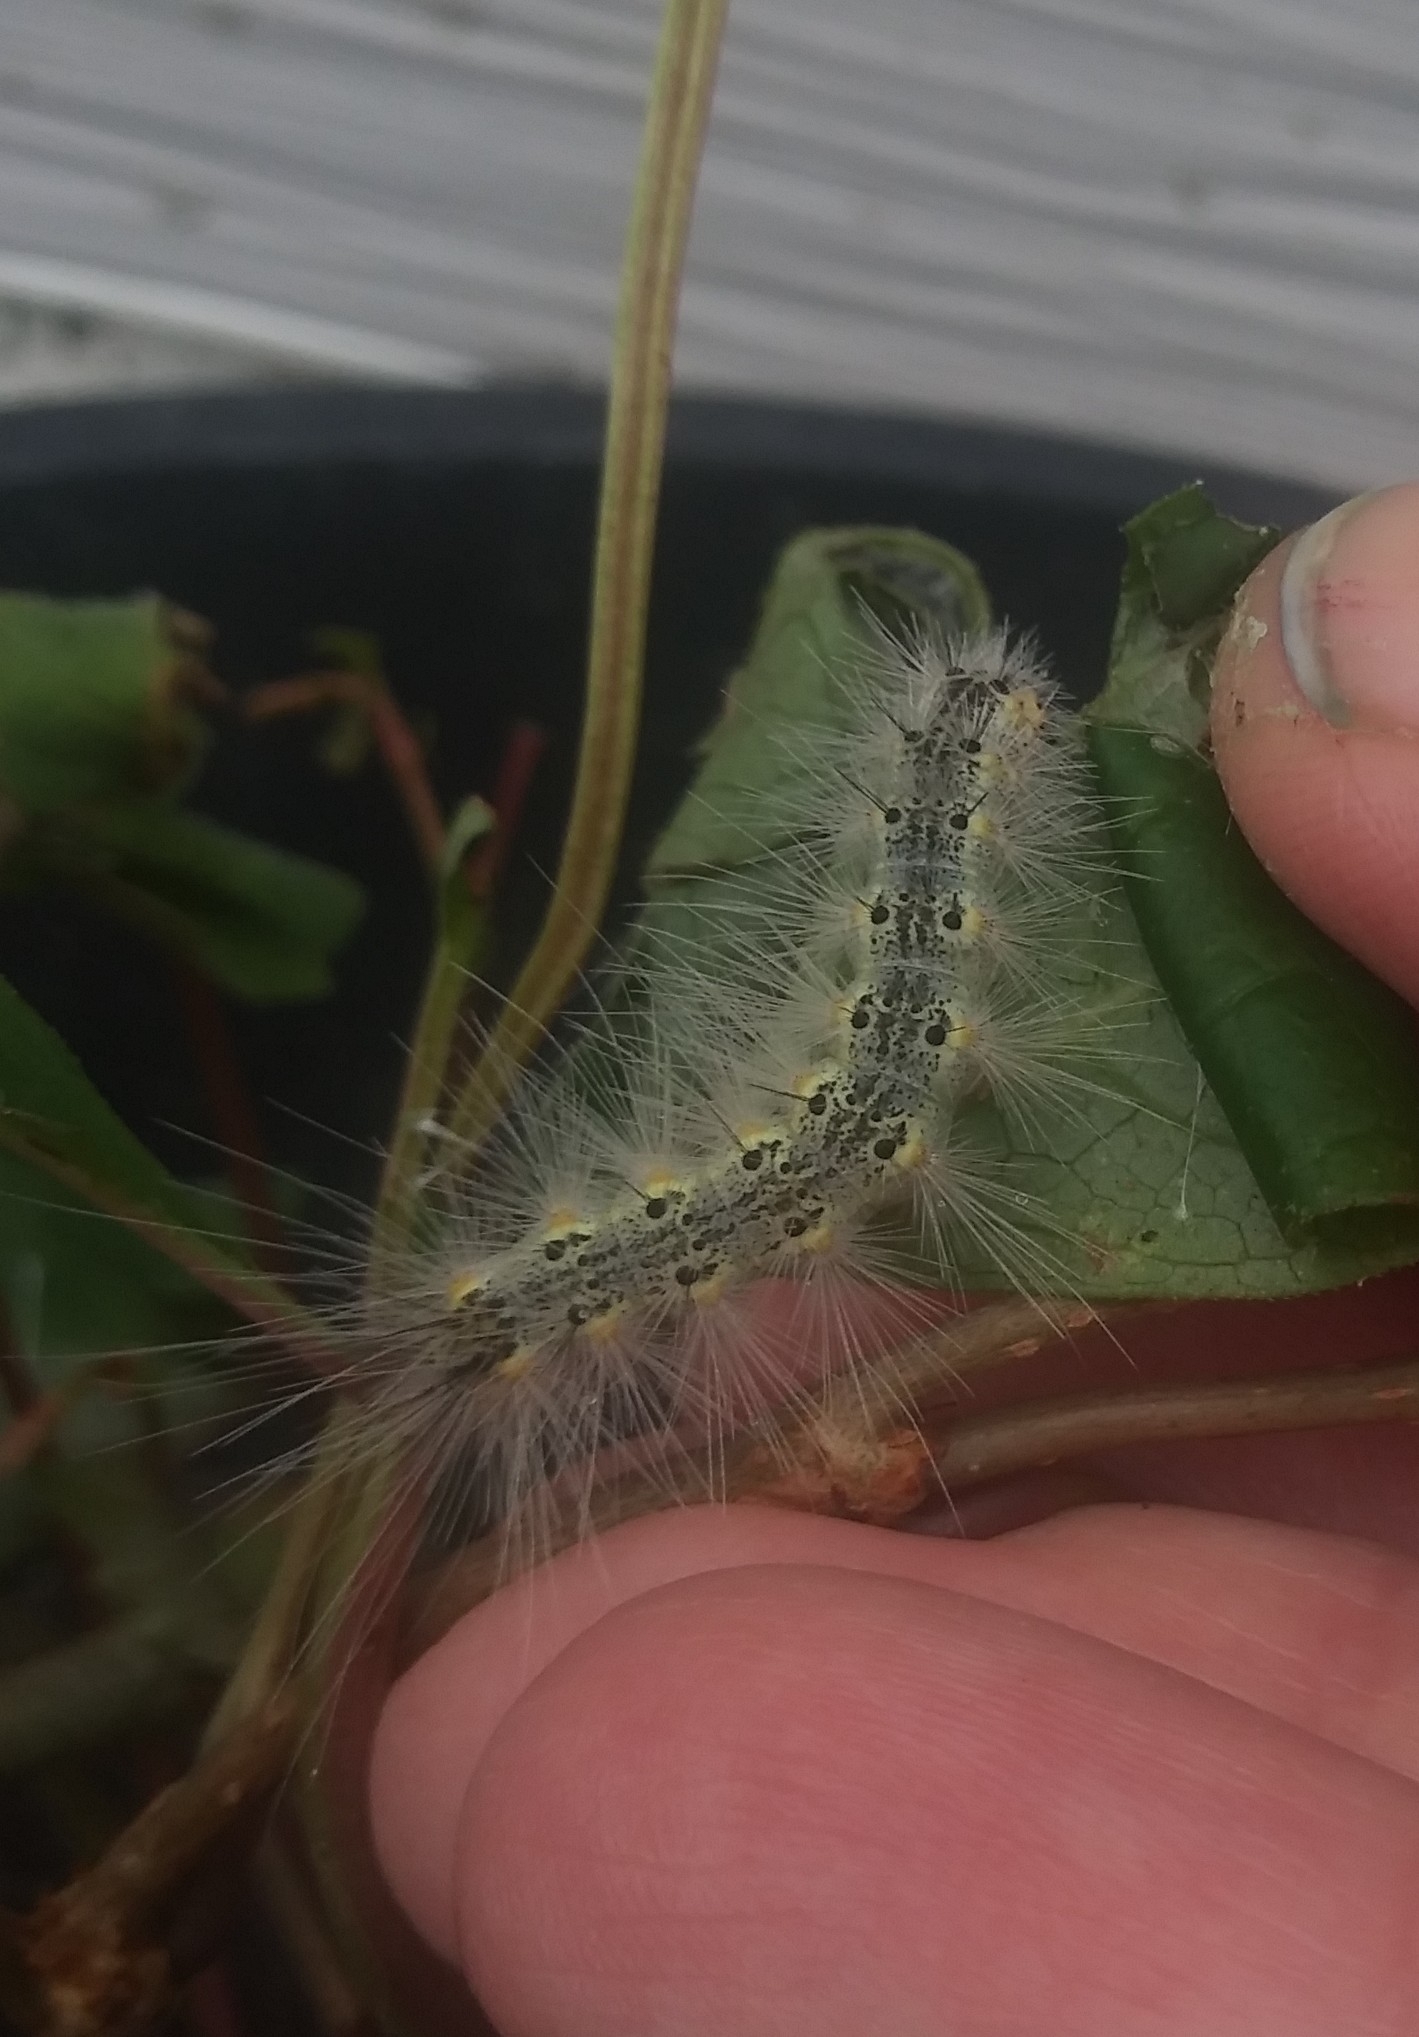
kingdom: Animalia
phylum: Arthropoda
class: Insecta
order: Lepidoptera
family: Erebidae
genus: Hyphantria
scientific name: Hyphantria cunea
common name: American white moth
